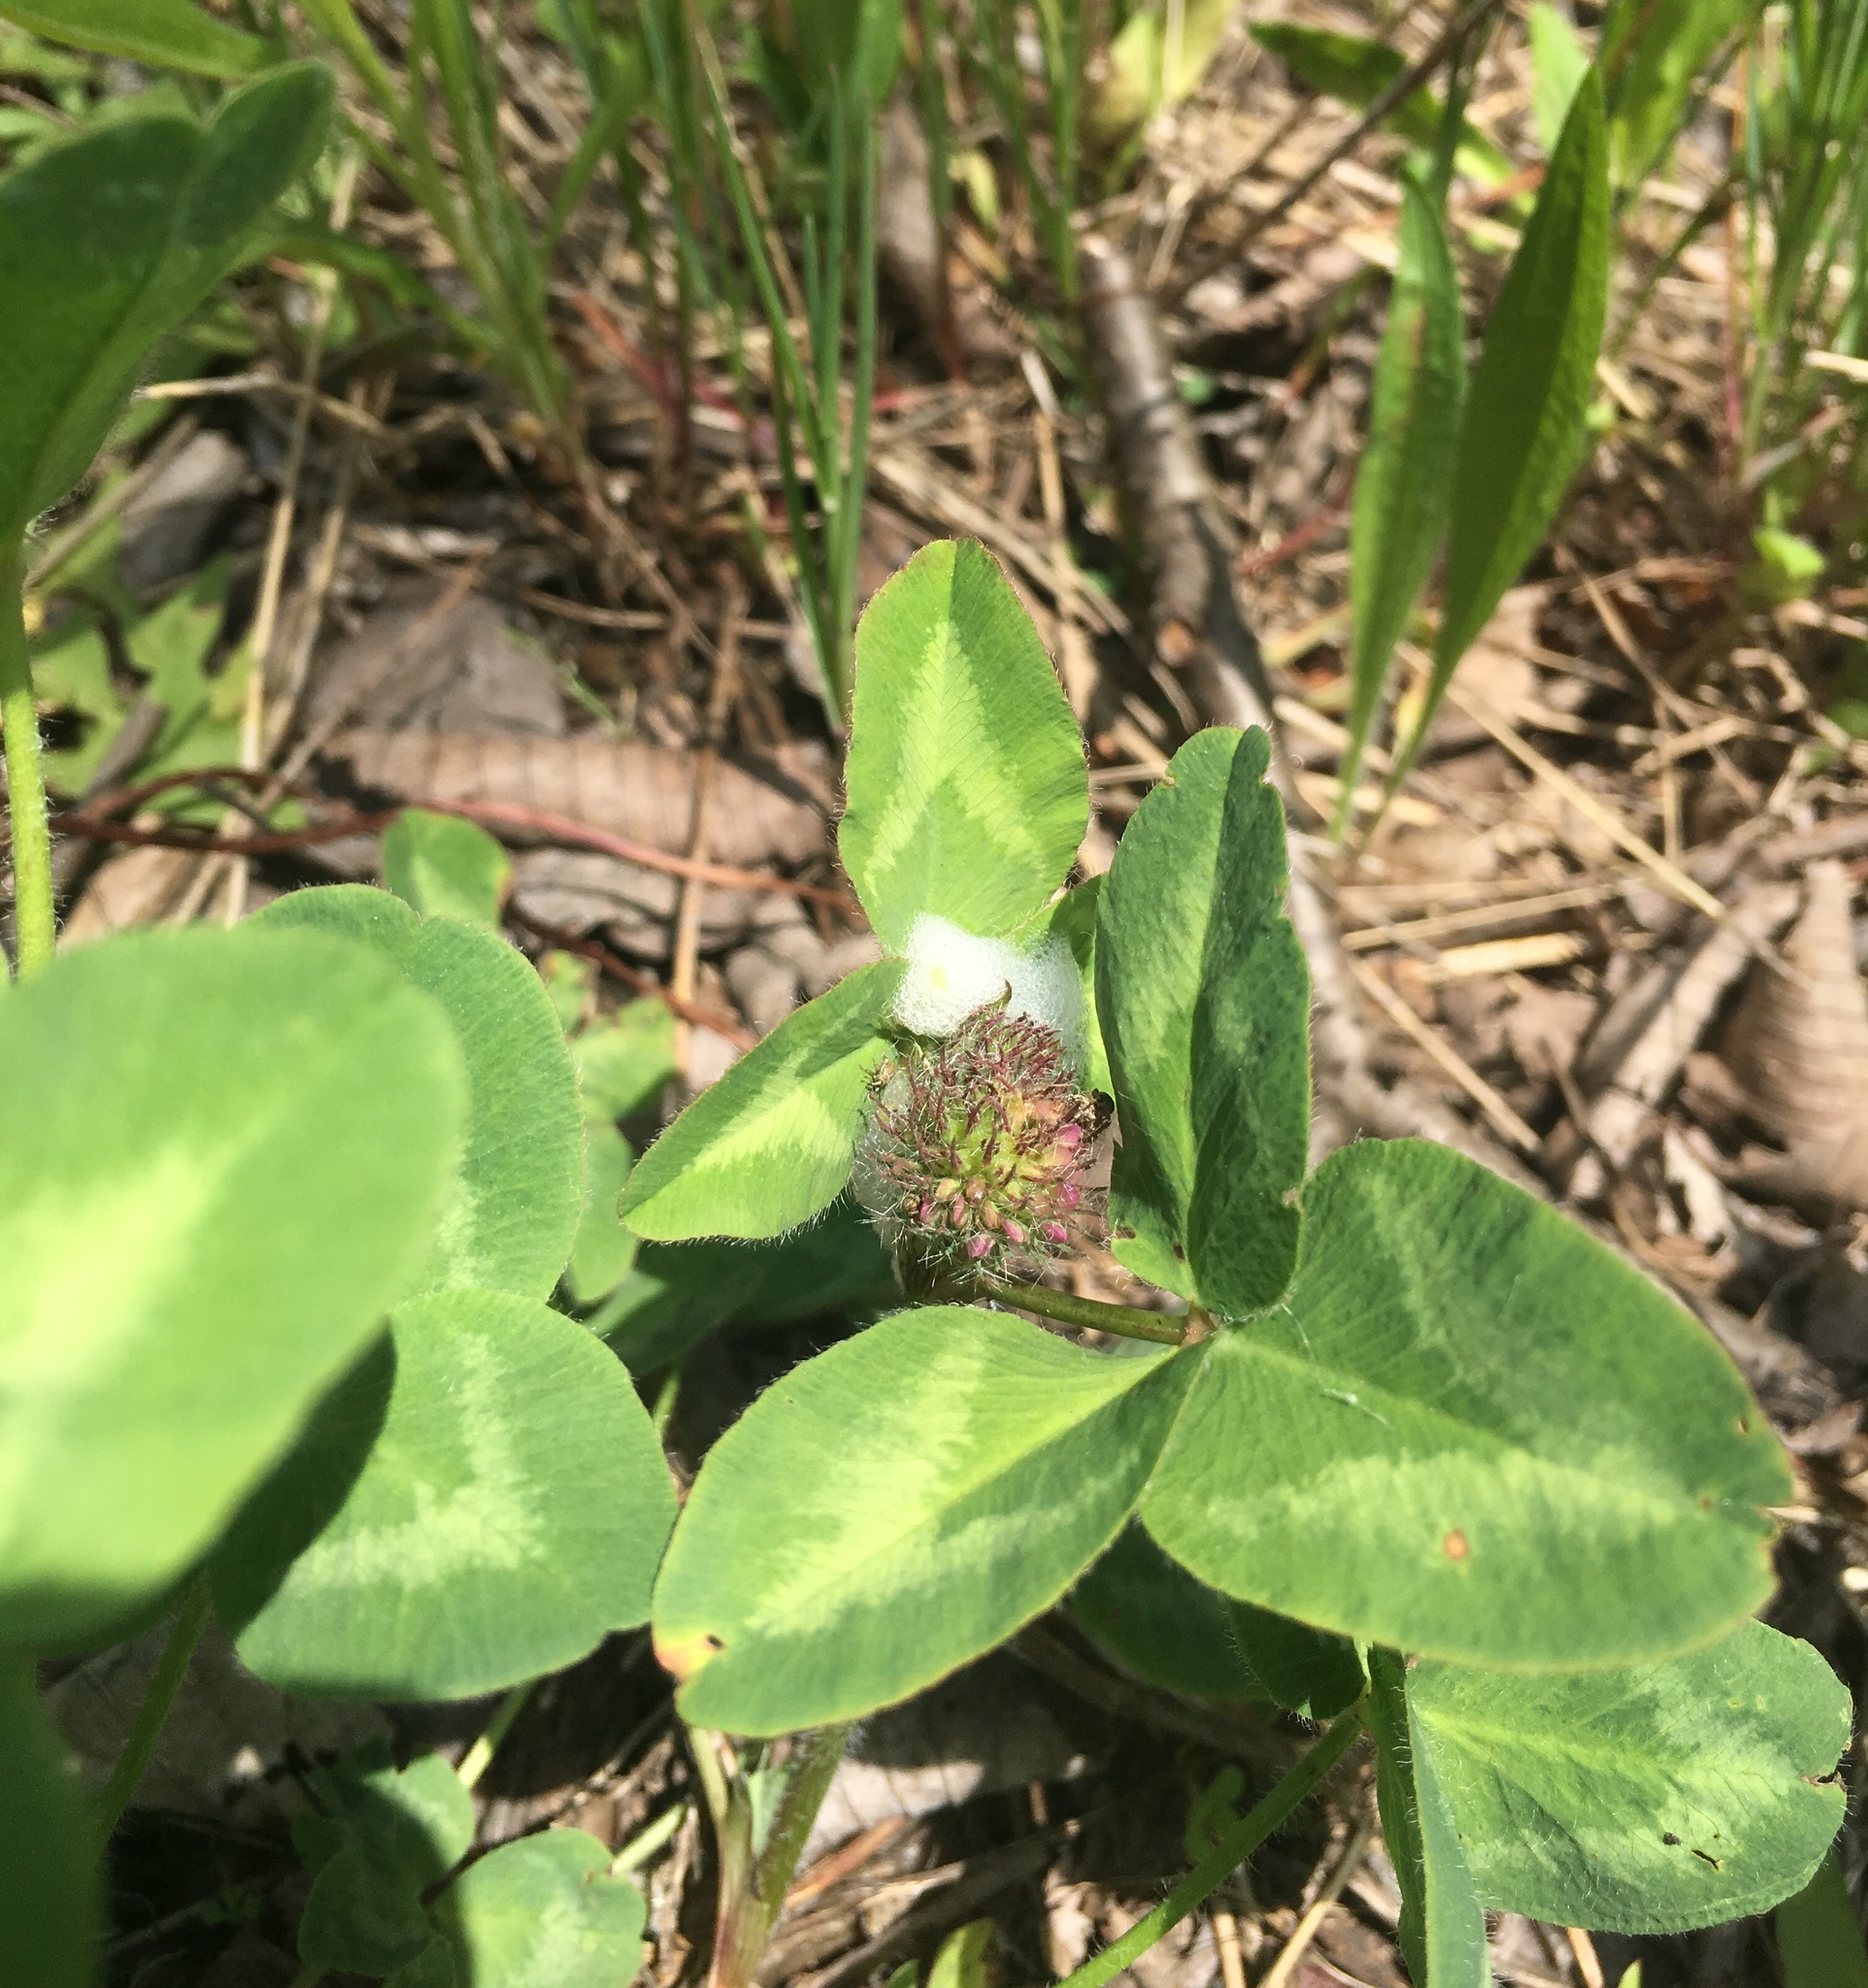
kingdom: Plantae
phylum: Tracheophyta
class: Magnoliopsida
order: Fabales
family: Fabaceae
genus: Trifolium
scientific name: Trifolium pratense
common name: Red clover
